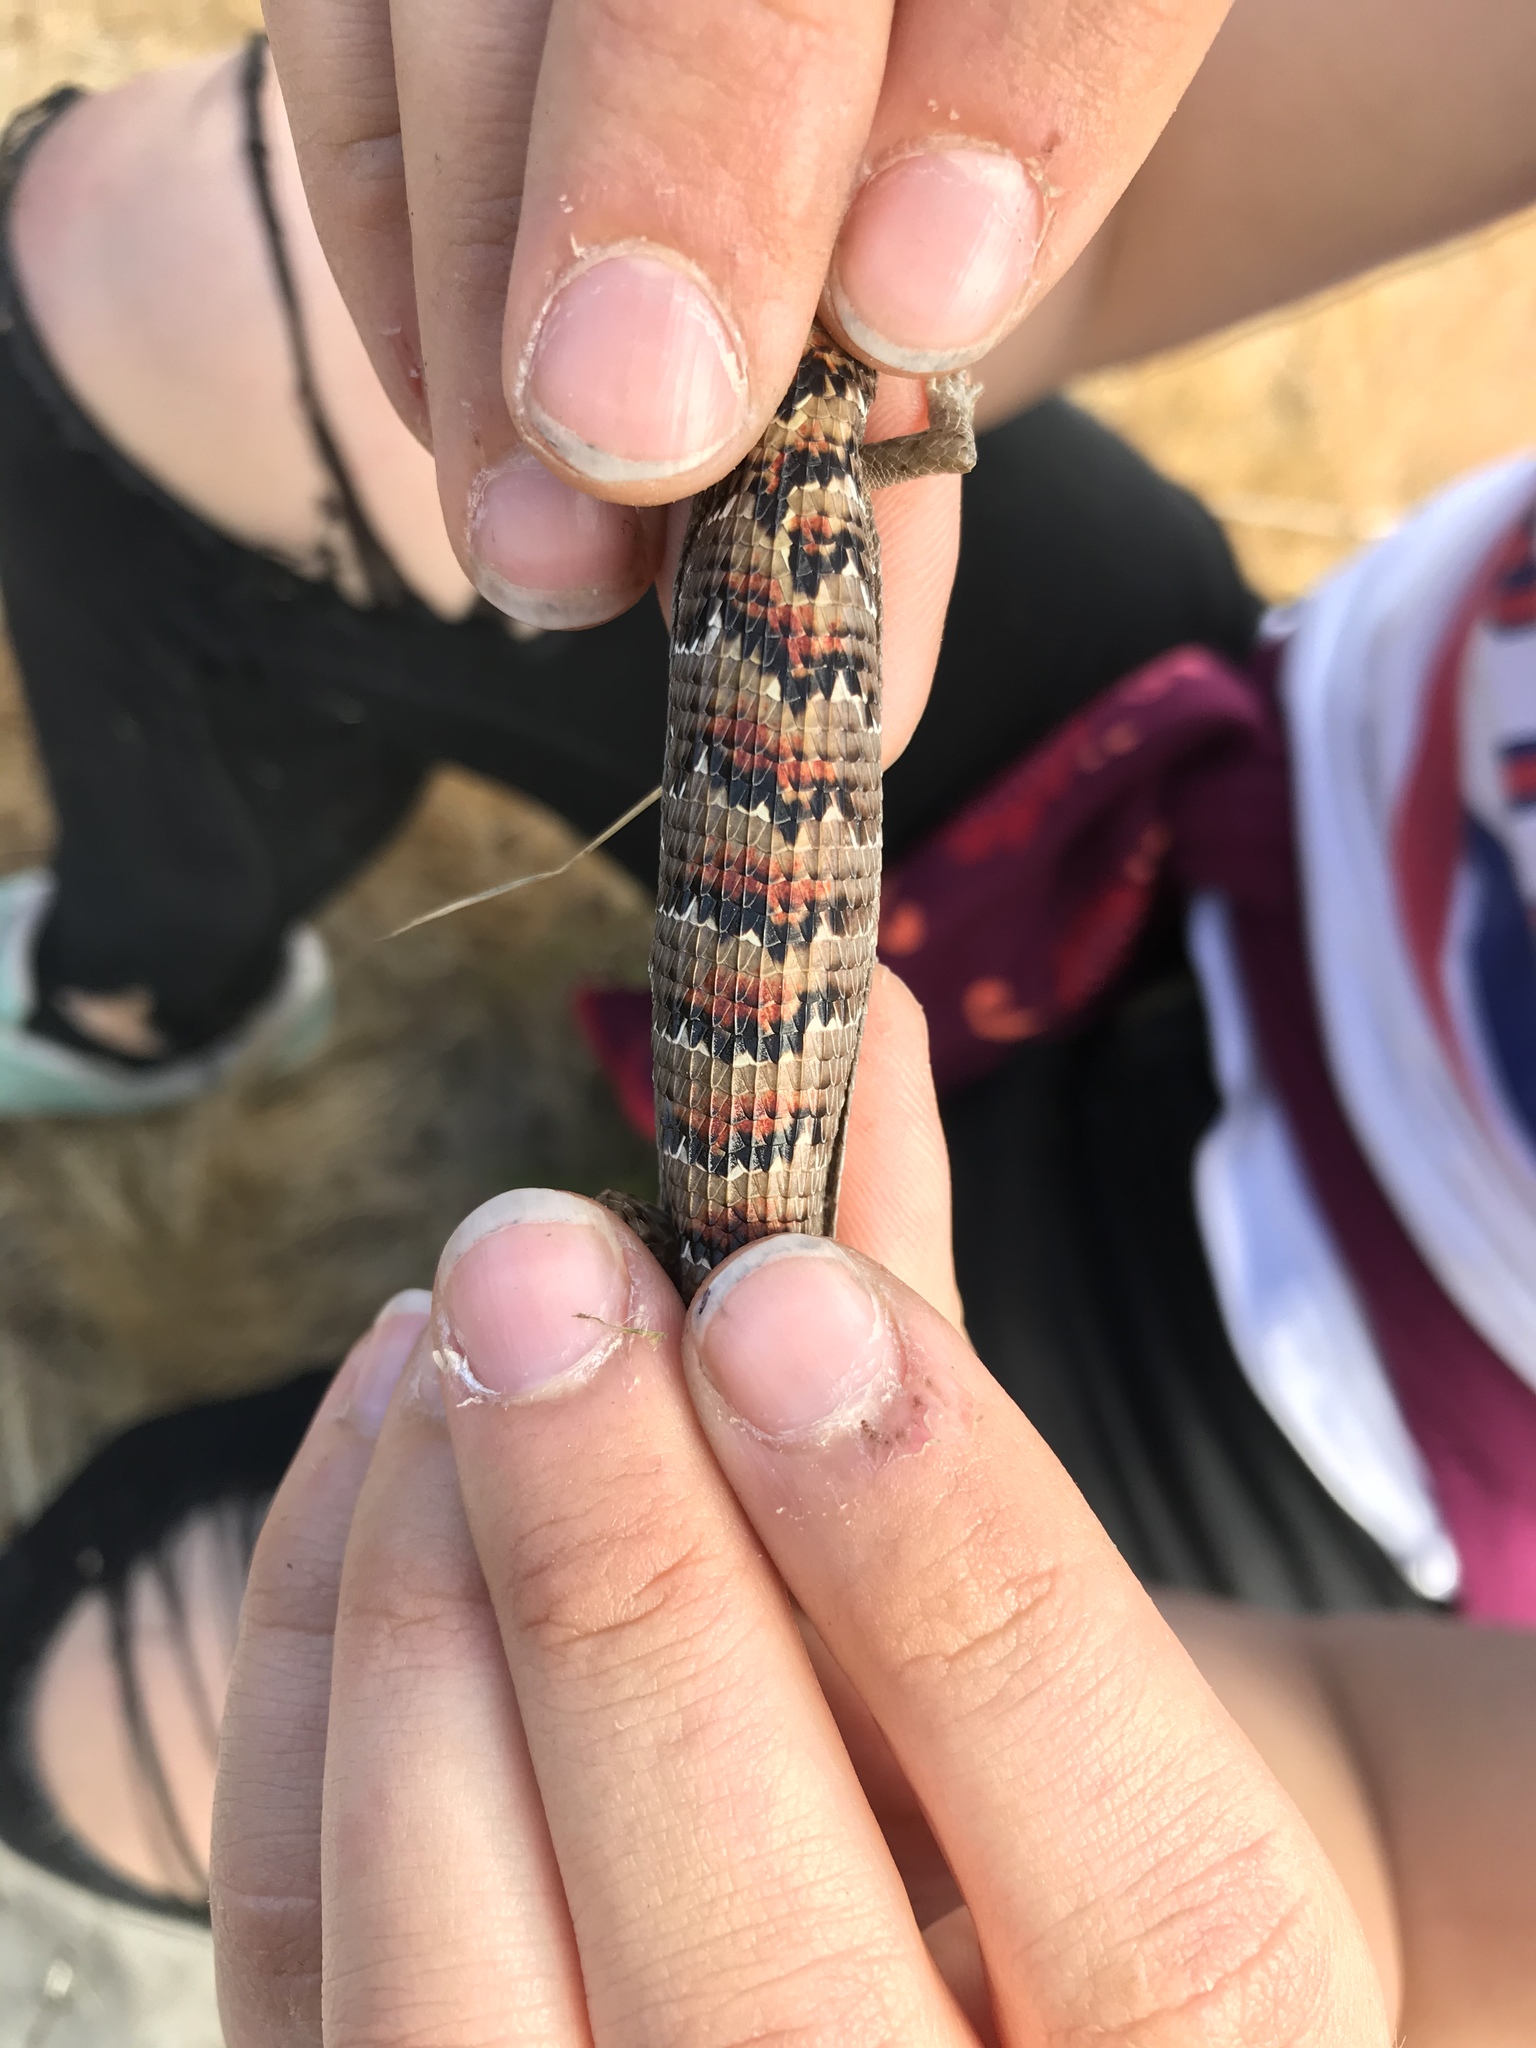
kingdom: Animalia
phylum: Chordata
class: Squamata
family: Anguidae
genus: Elgaria
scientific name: Elgaria multicarinata
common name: Southern alligator lizard
